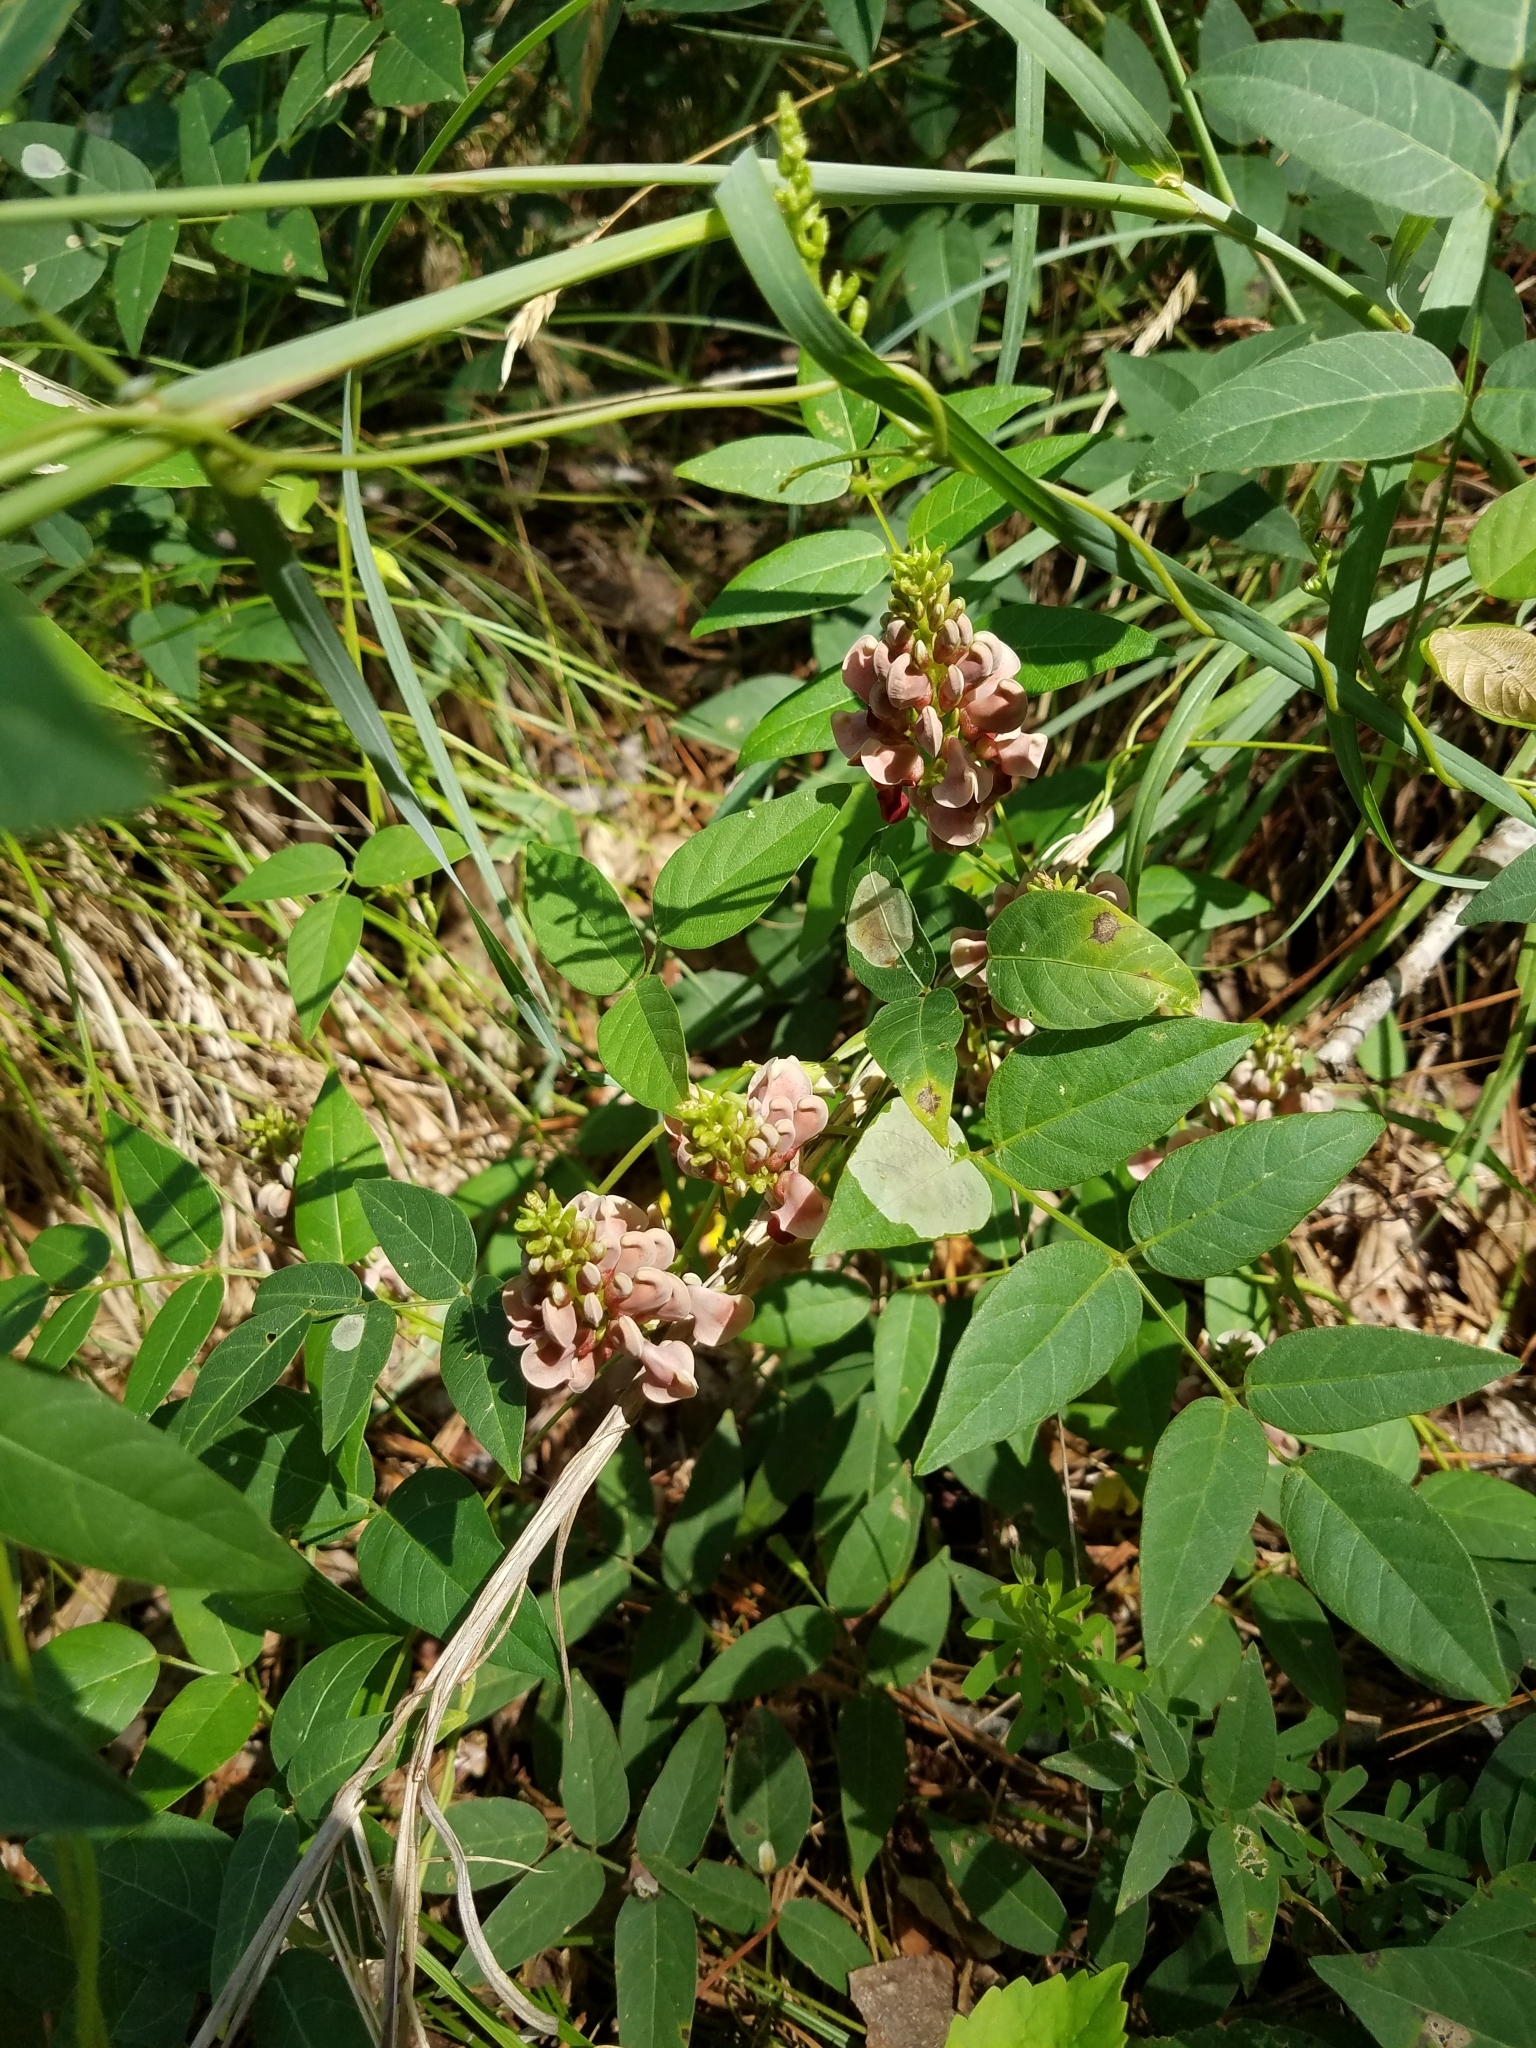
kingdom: Plantae
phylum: Tracheophyta
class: Magnoliopsida
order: Fabales
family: Fabaceae
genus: Apios
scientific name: Apios americana
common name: American potato-bean
